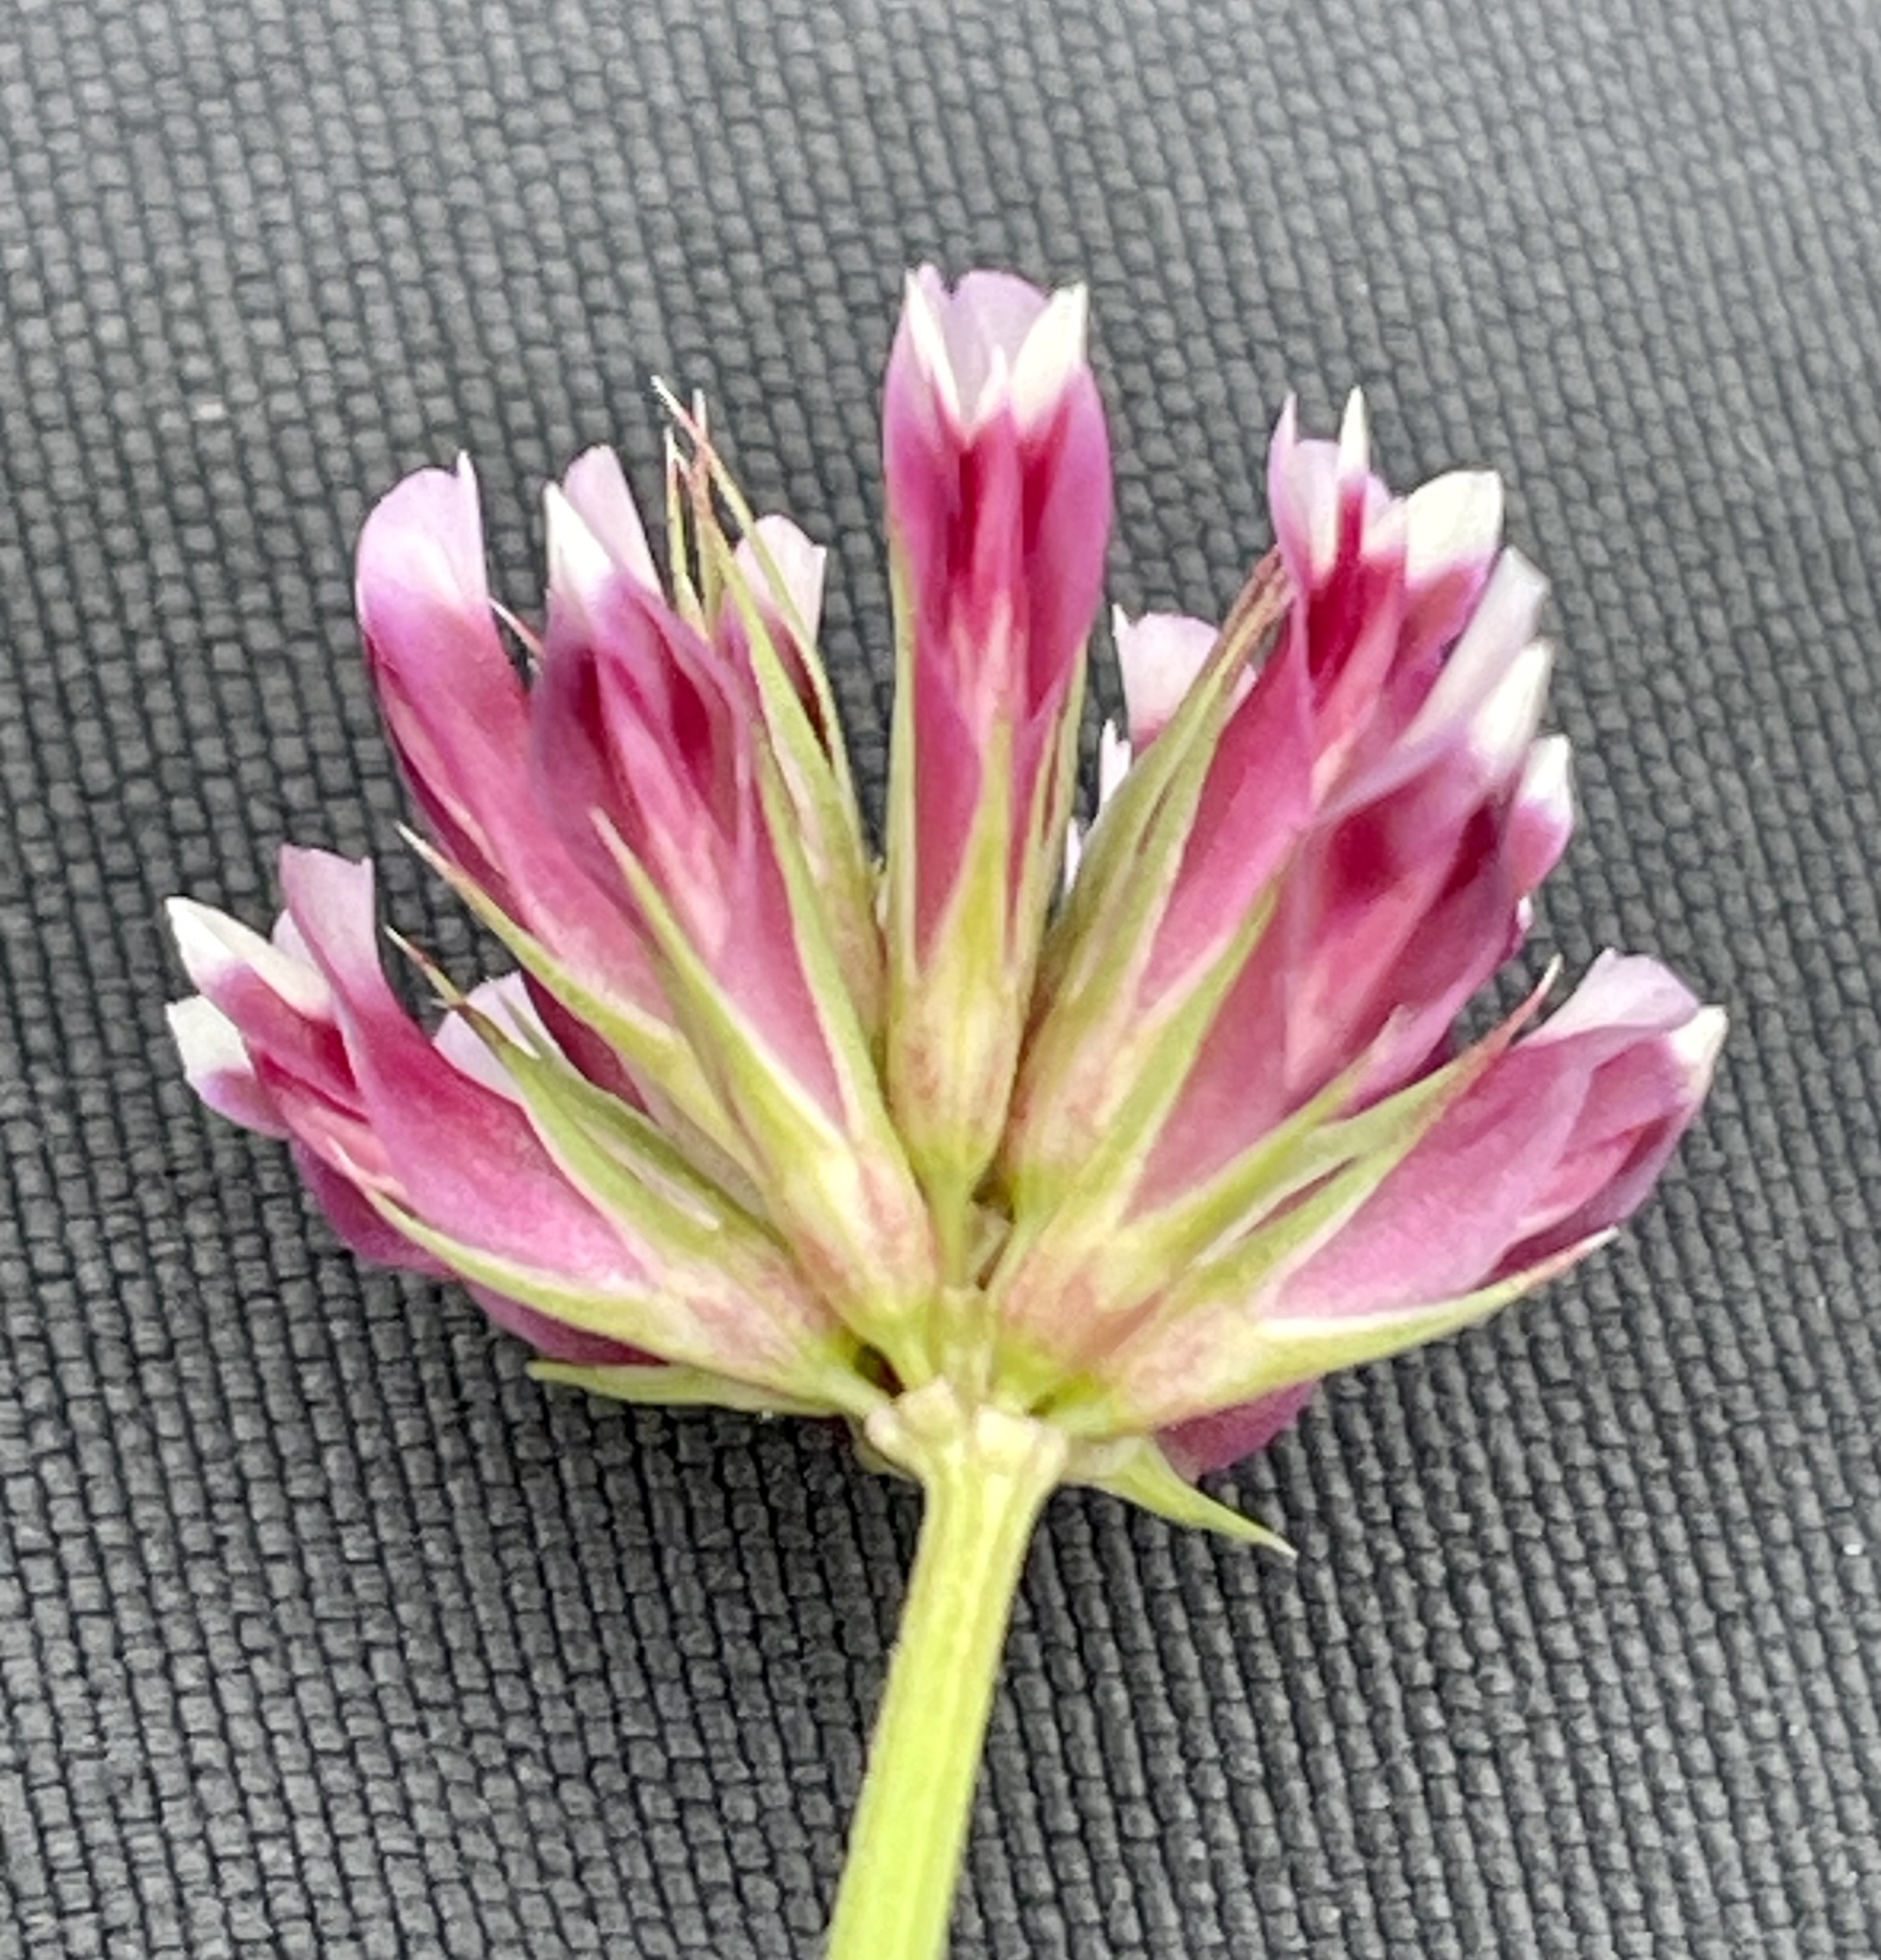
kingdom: Plantae
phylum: Tracheophyta
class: Magnoliopsida
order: Fabales
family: Fabaceae
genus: Trifolium
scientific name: Trifolium gracilentum
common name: Slender clover
